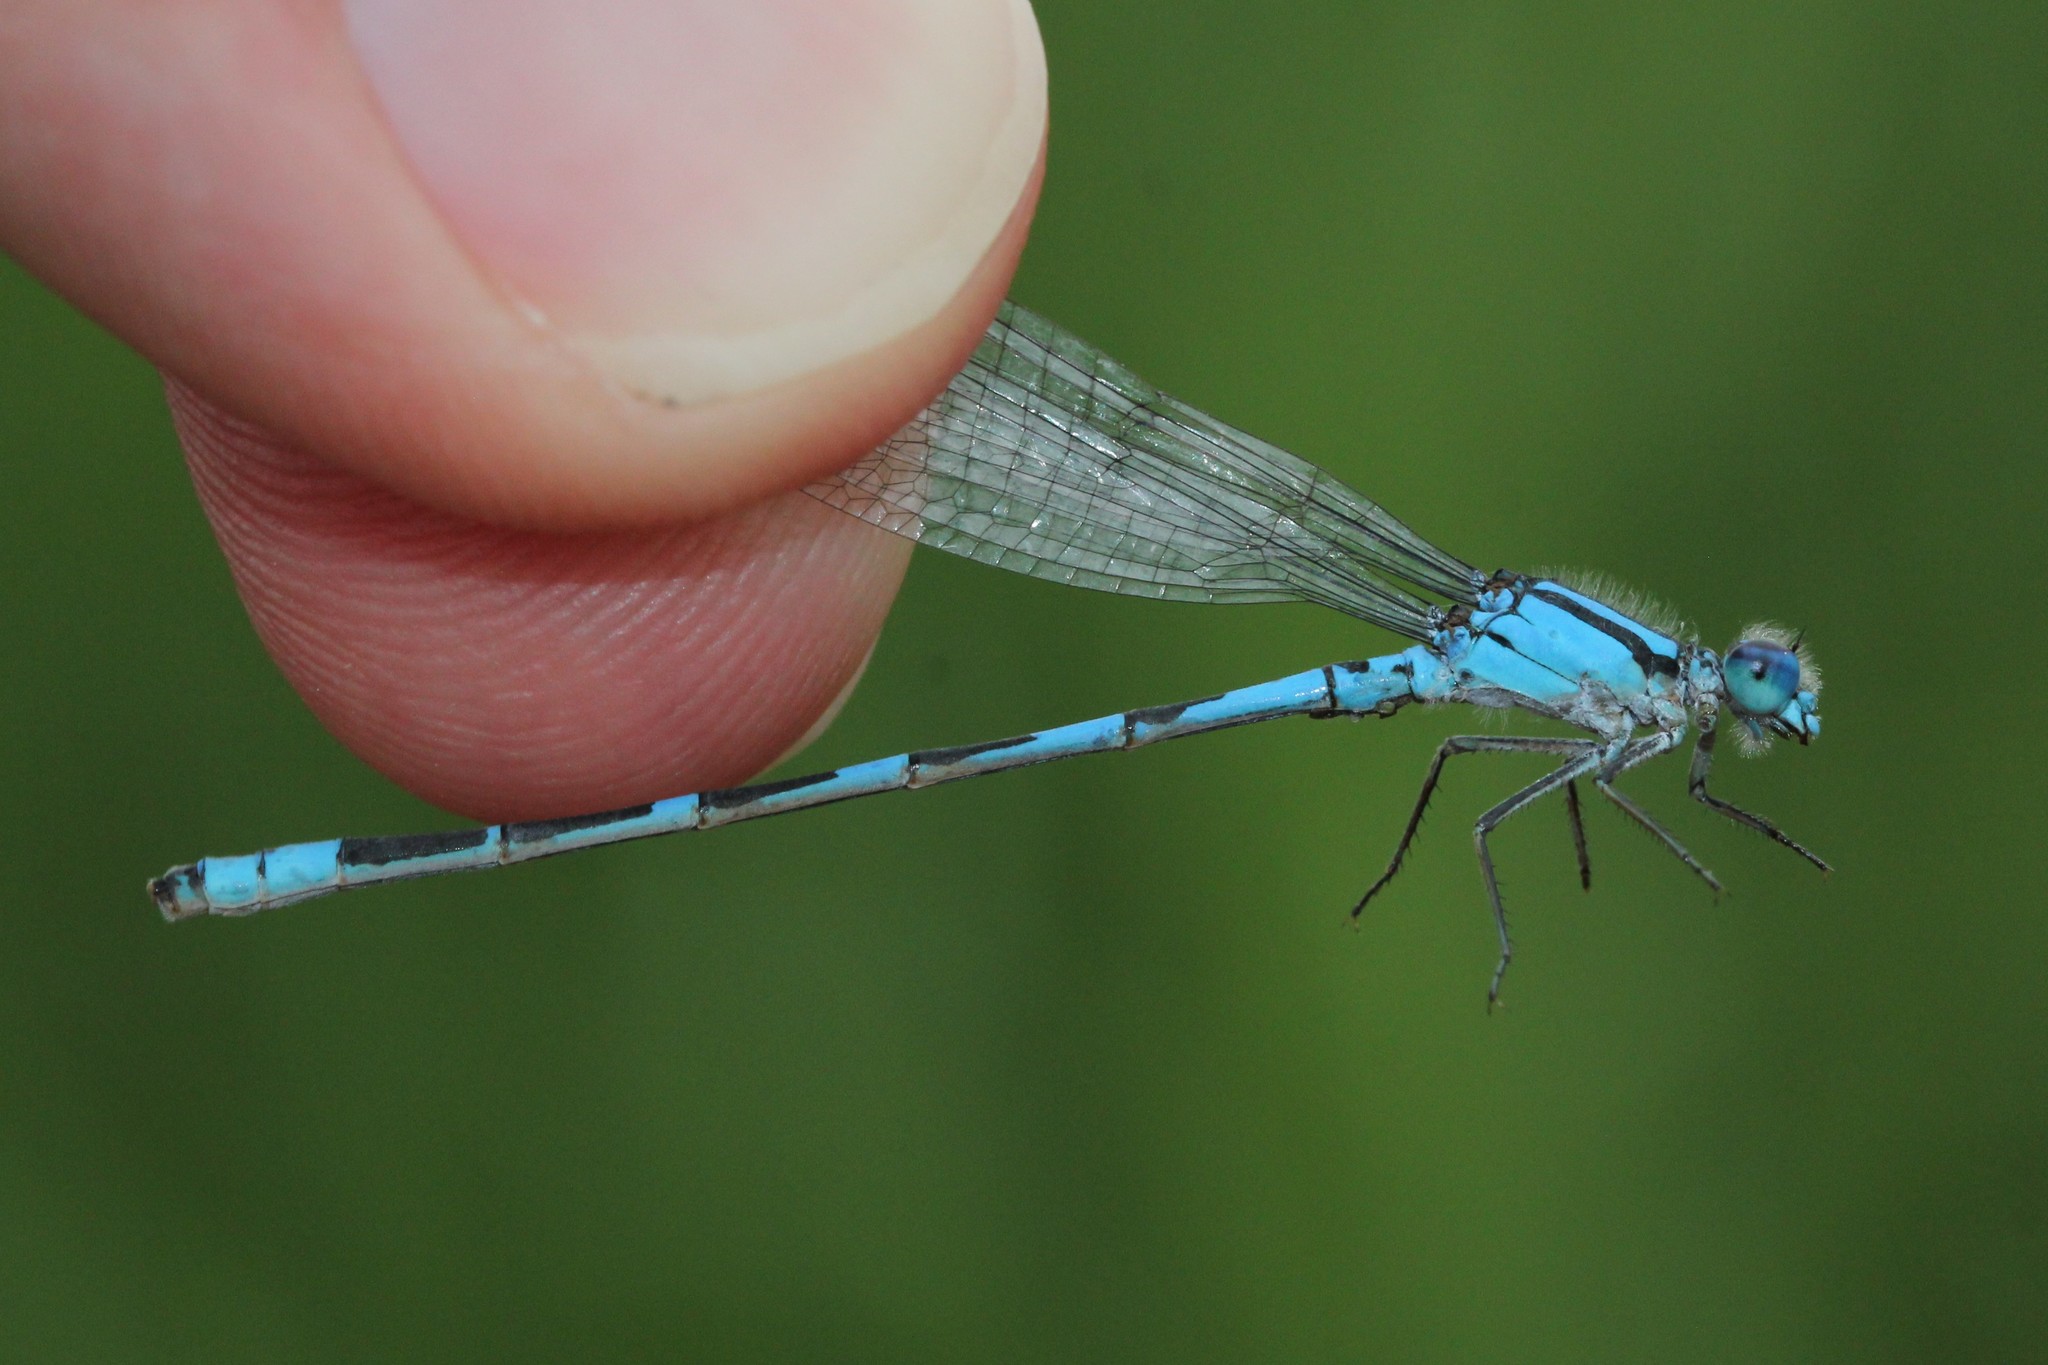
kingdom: Animalia
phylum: Arthropoda
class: Insecta
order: Odonata
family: Coenagrionidae
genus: Enallagma
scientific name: Enallagma carunculatum
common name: Tule bluet
